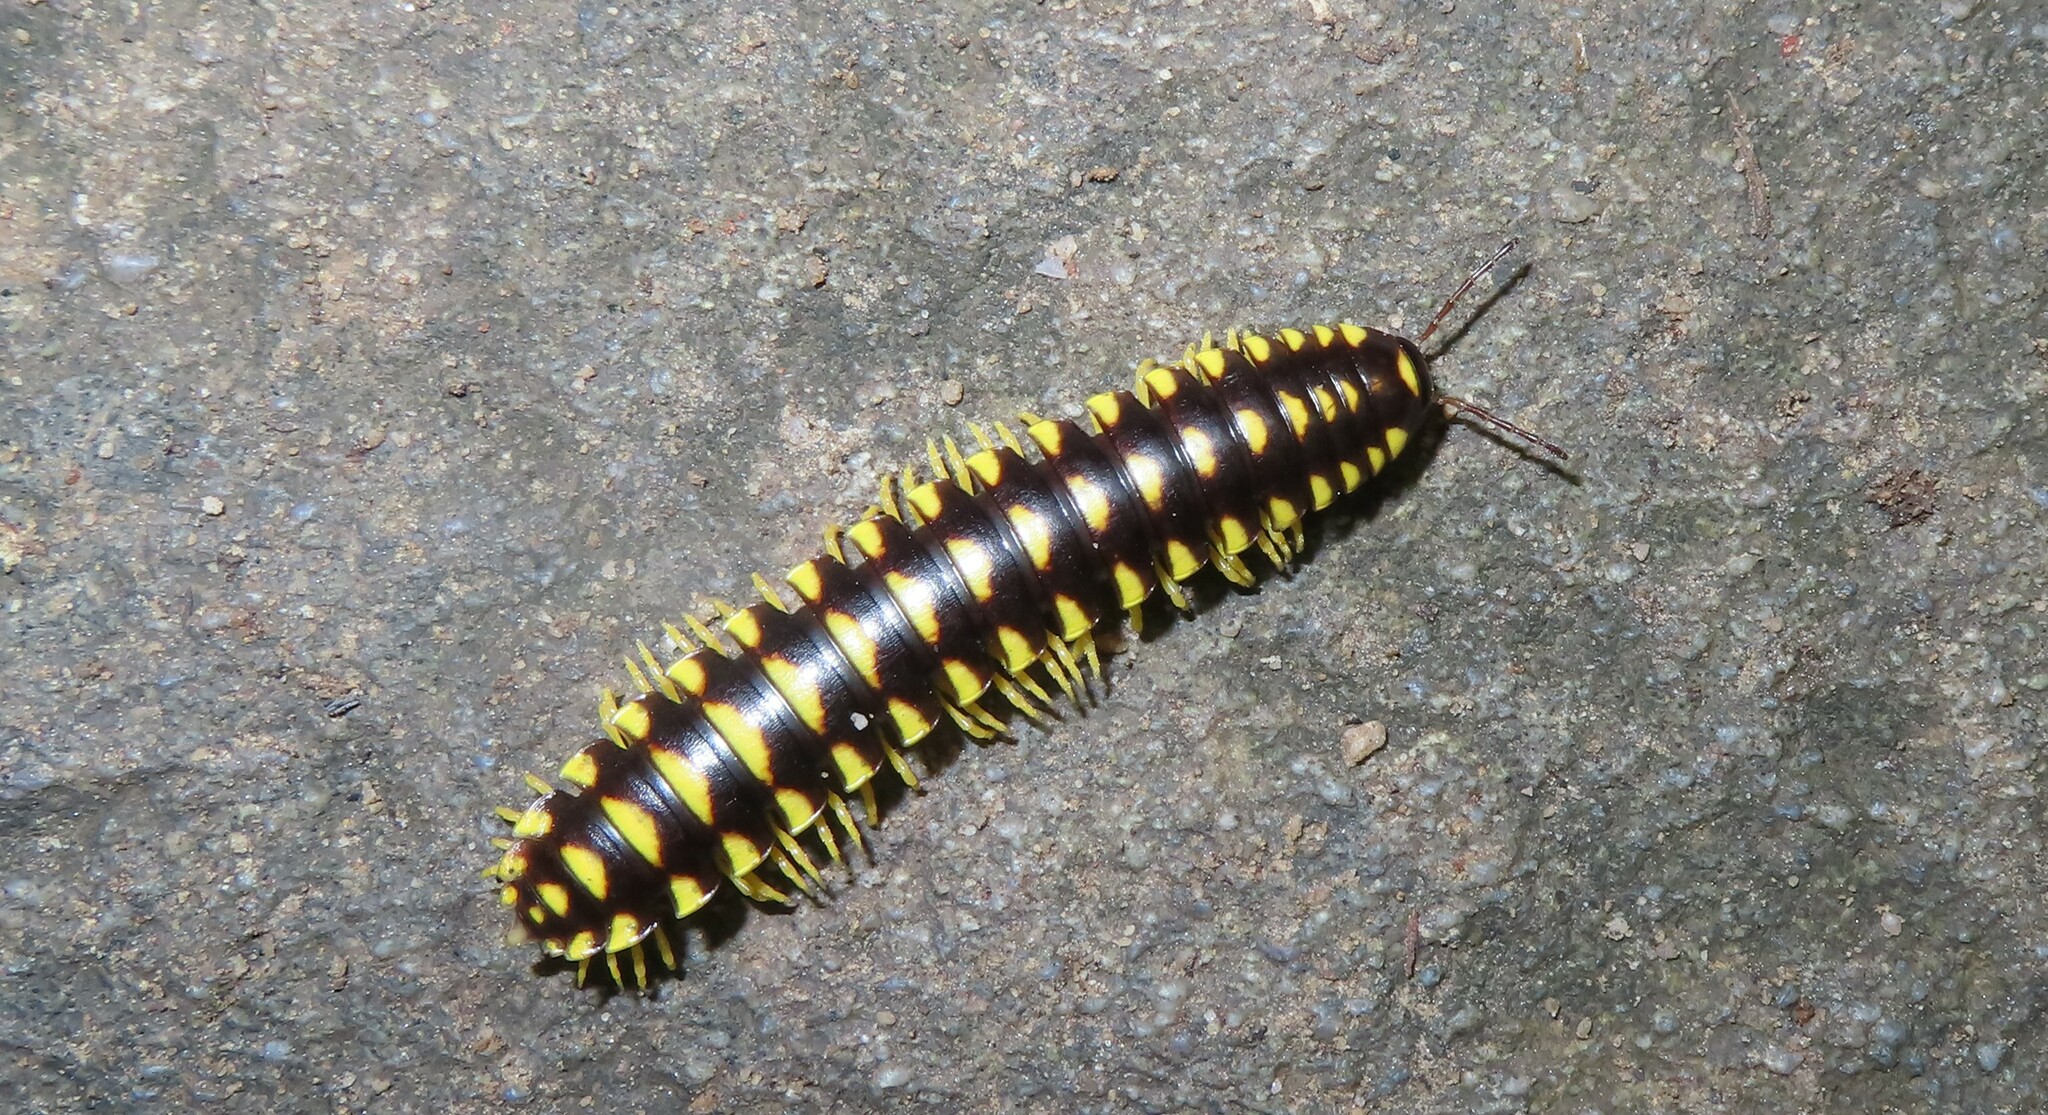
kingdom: Animalia
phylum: Arthropoda
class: Diplopoda
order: Polydesmida
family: Xystodesmidae
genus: Cherokia
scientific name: Cherokia georgiana
